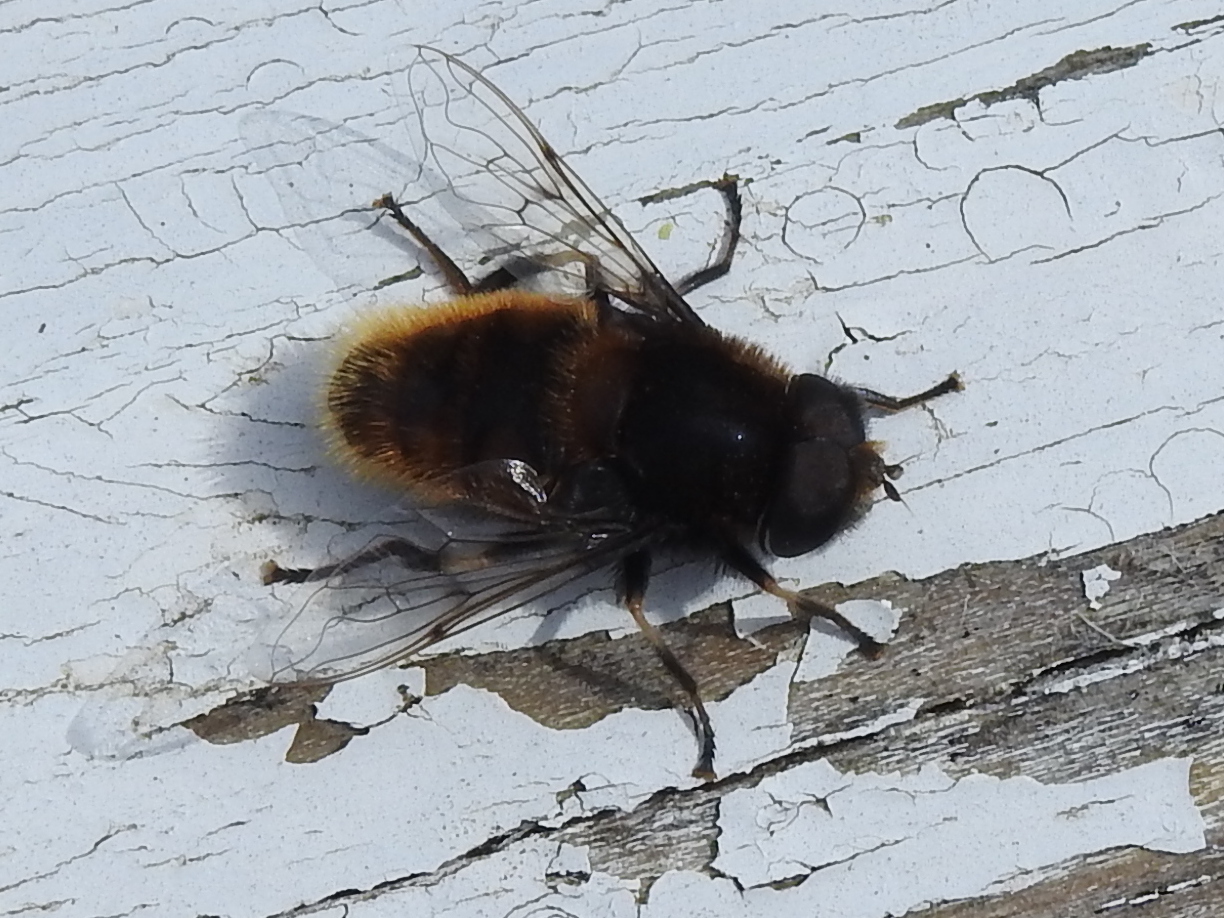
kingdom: Animalia
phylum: Arthropoda
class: Insecta
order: Diptera
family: Syrphidae
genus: Eristalis
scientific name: Eristalis intricaria
